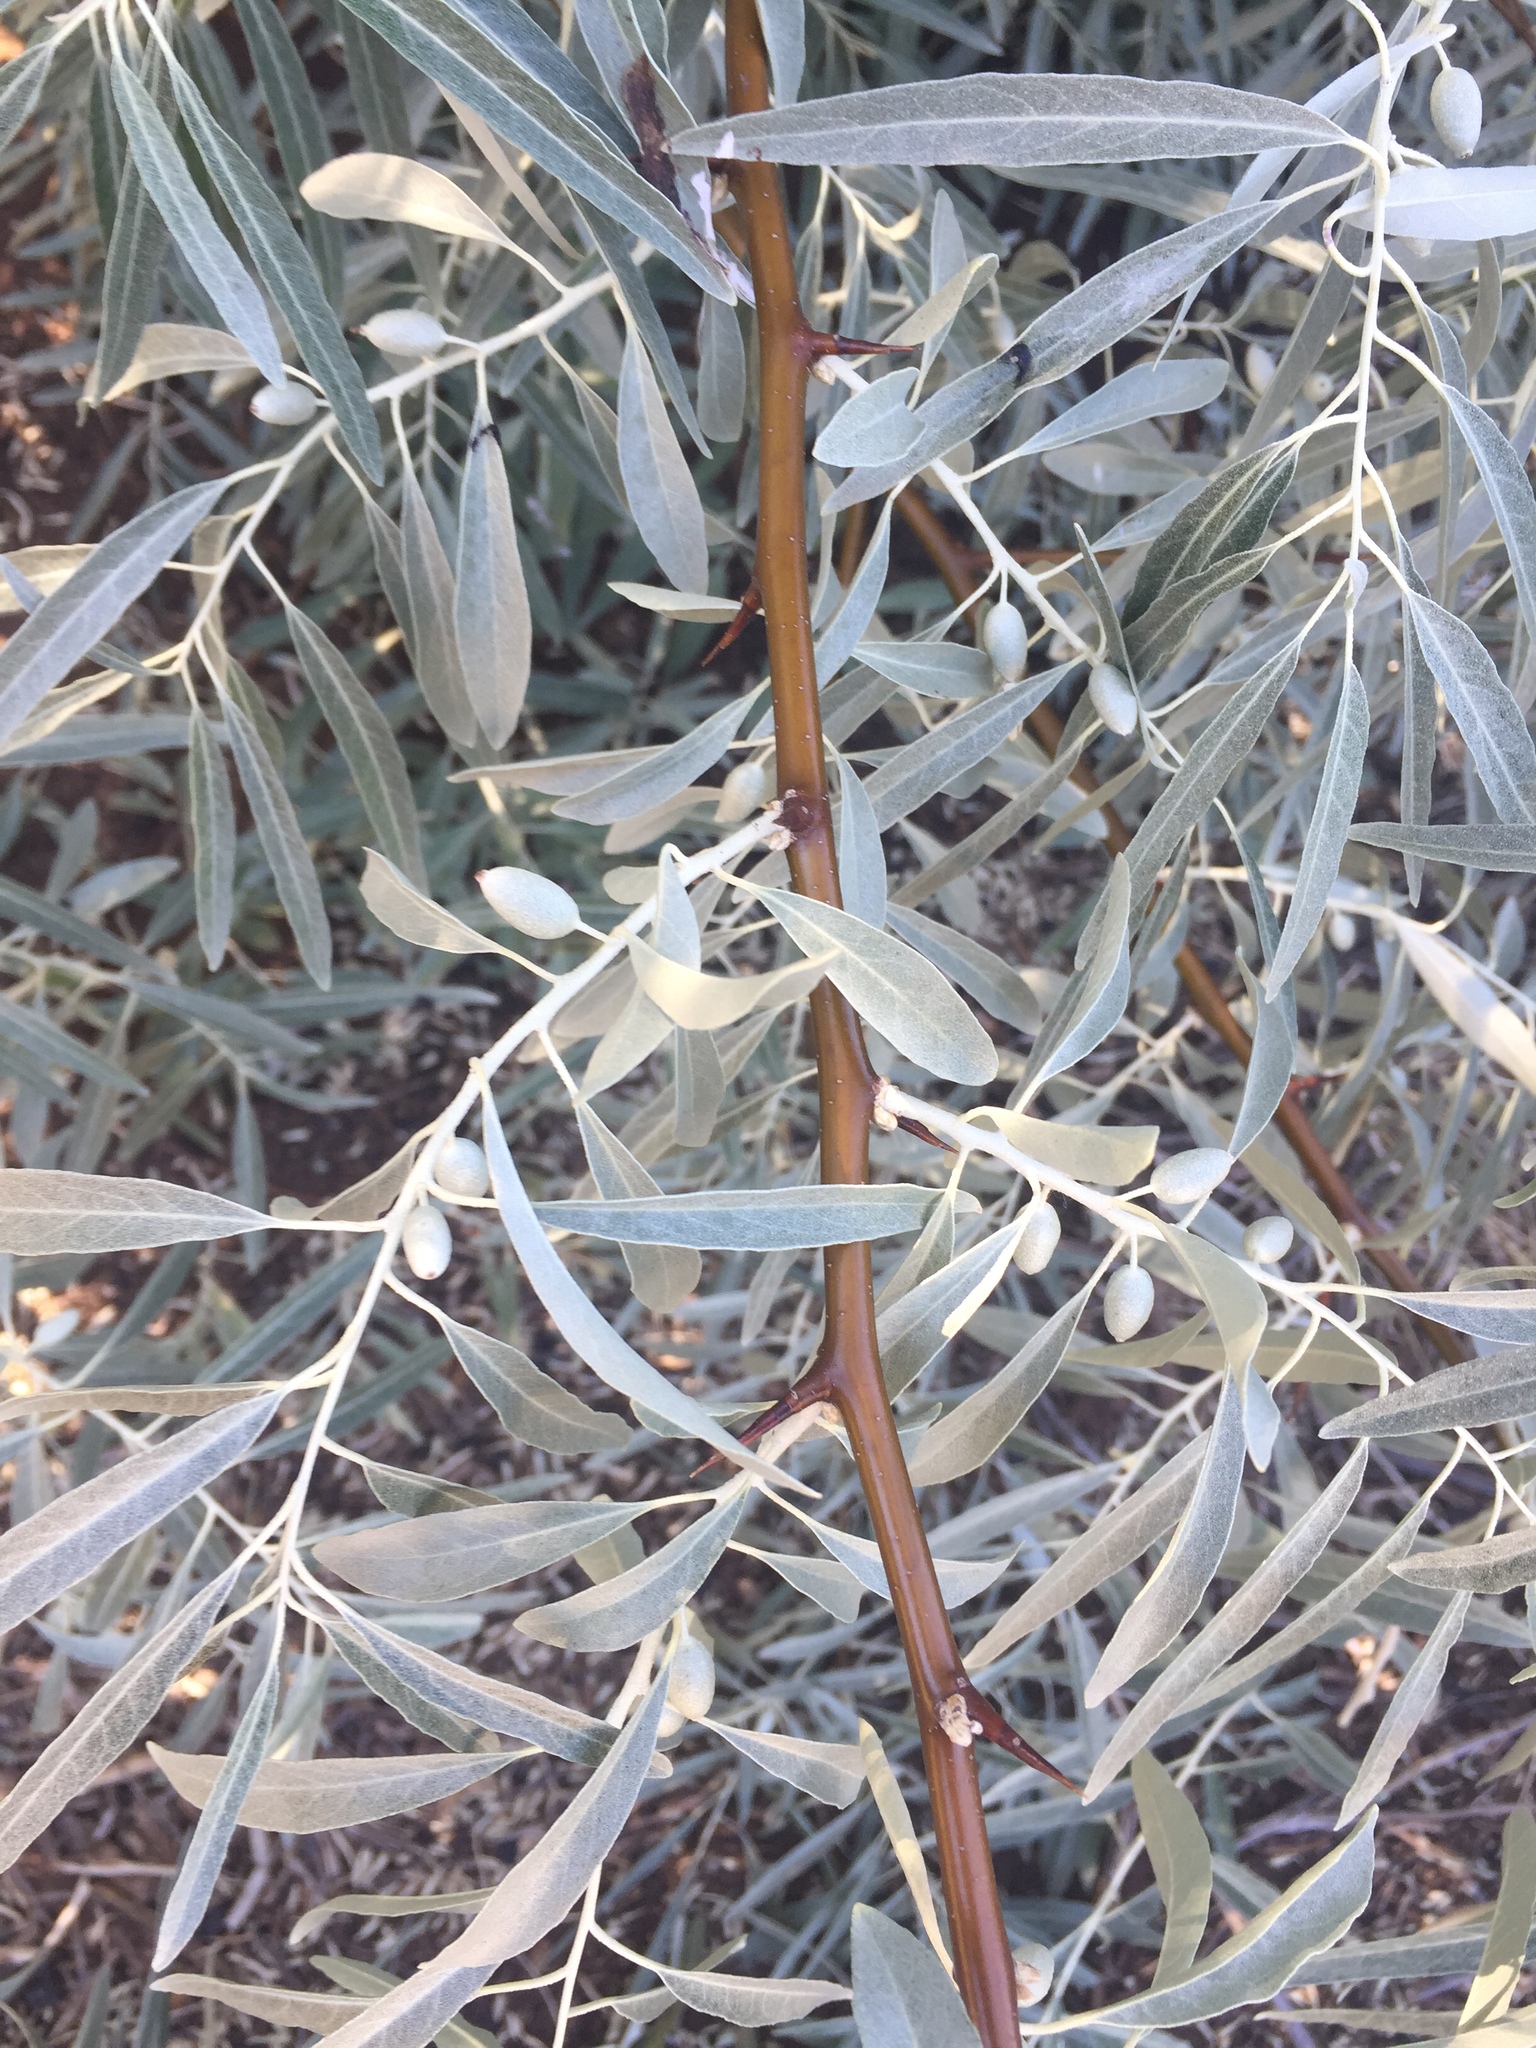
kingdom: Plantae
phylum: Tracheophyta
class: Magnoliopsida
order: Rosales
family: Elaeagnaceae
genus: Elaeagnus
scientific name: Elaeagnus angustifolia
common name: Russian olive
